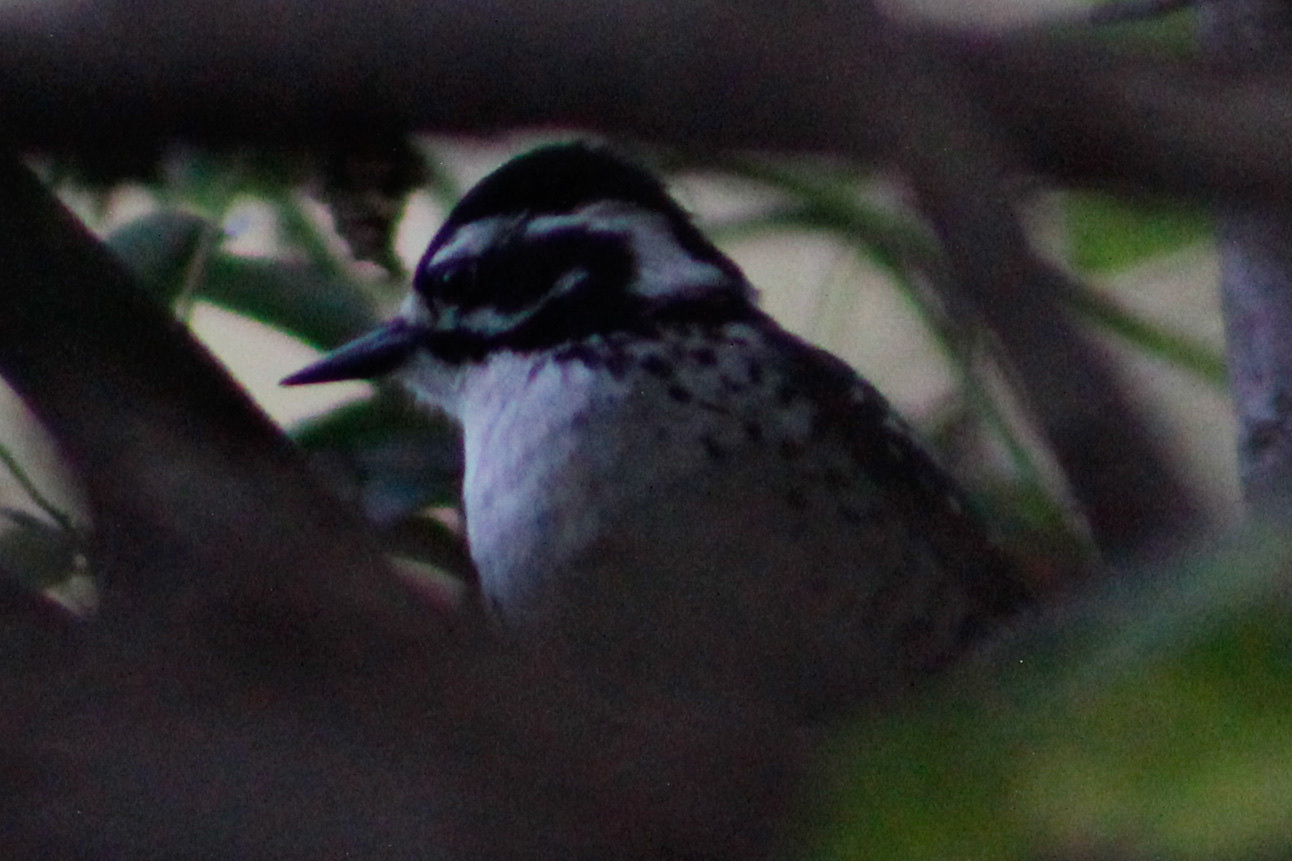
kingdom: Animalia
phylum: Chordata
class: Aves
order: Piciformes
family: Picidae
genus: Dryobates
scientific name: Dryobates nuttallii
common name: Nuttall's woodpecker
